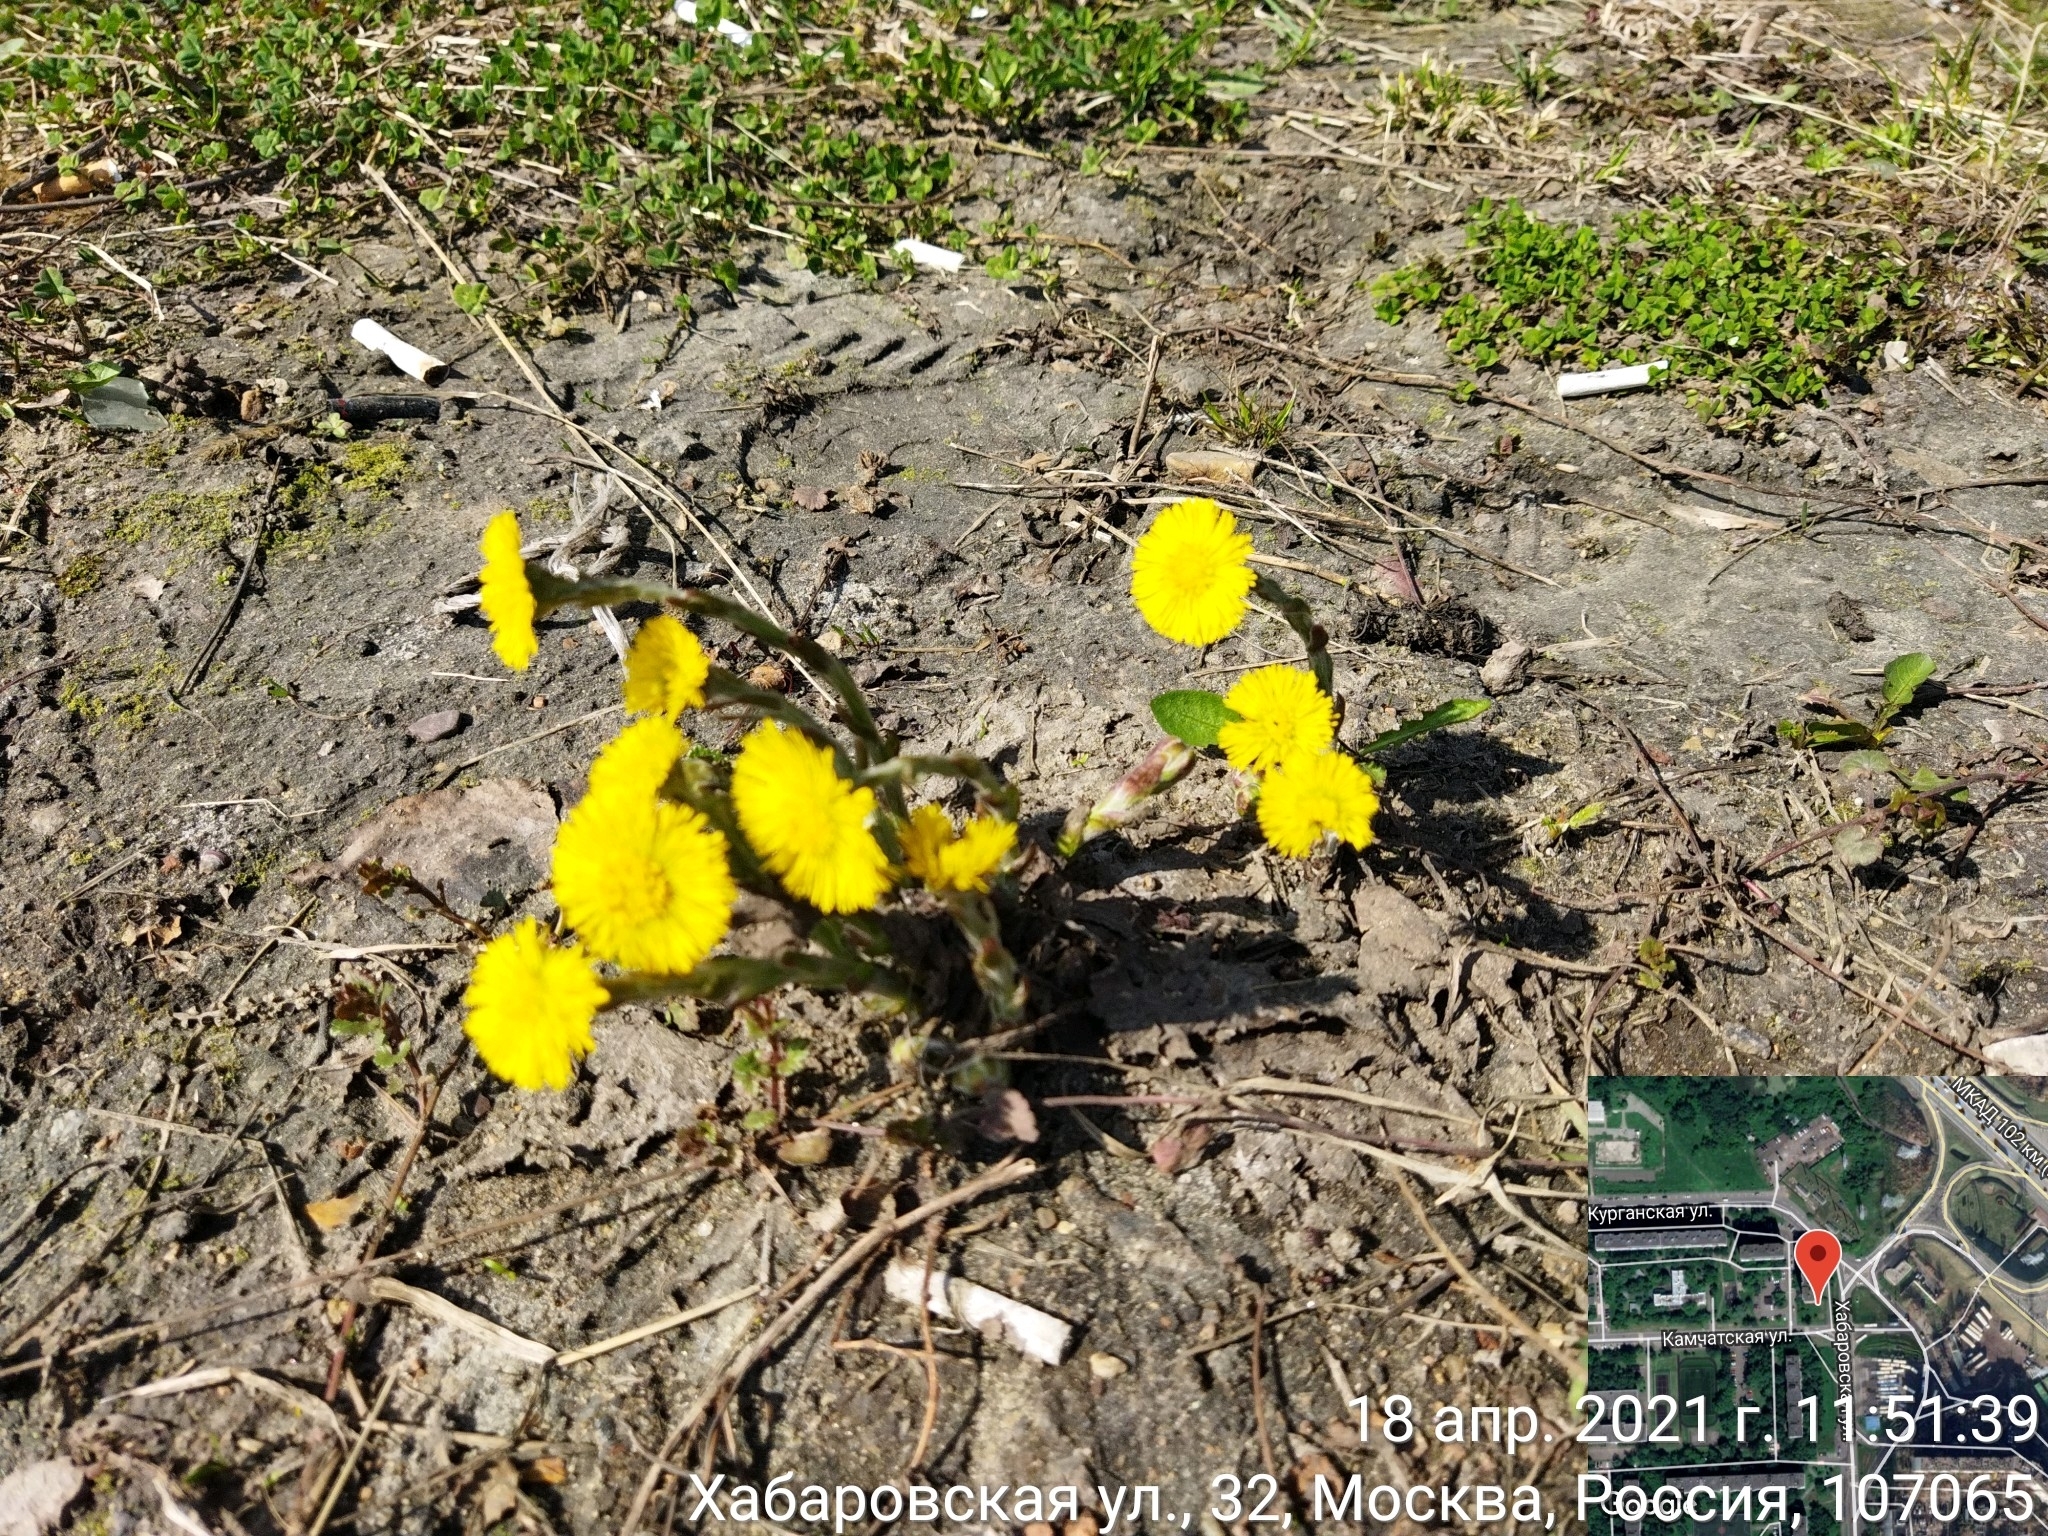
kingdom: Plantae
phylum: Tracheophyta
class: Magnoliopsida
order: Asterales
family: Asteraceae
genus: Tussilago
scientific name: Tussilago farfara
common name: Coltsfoot
